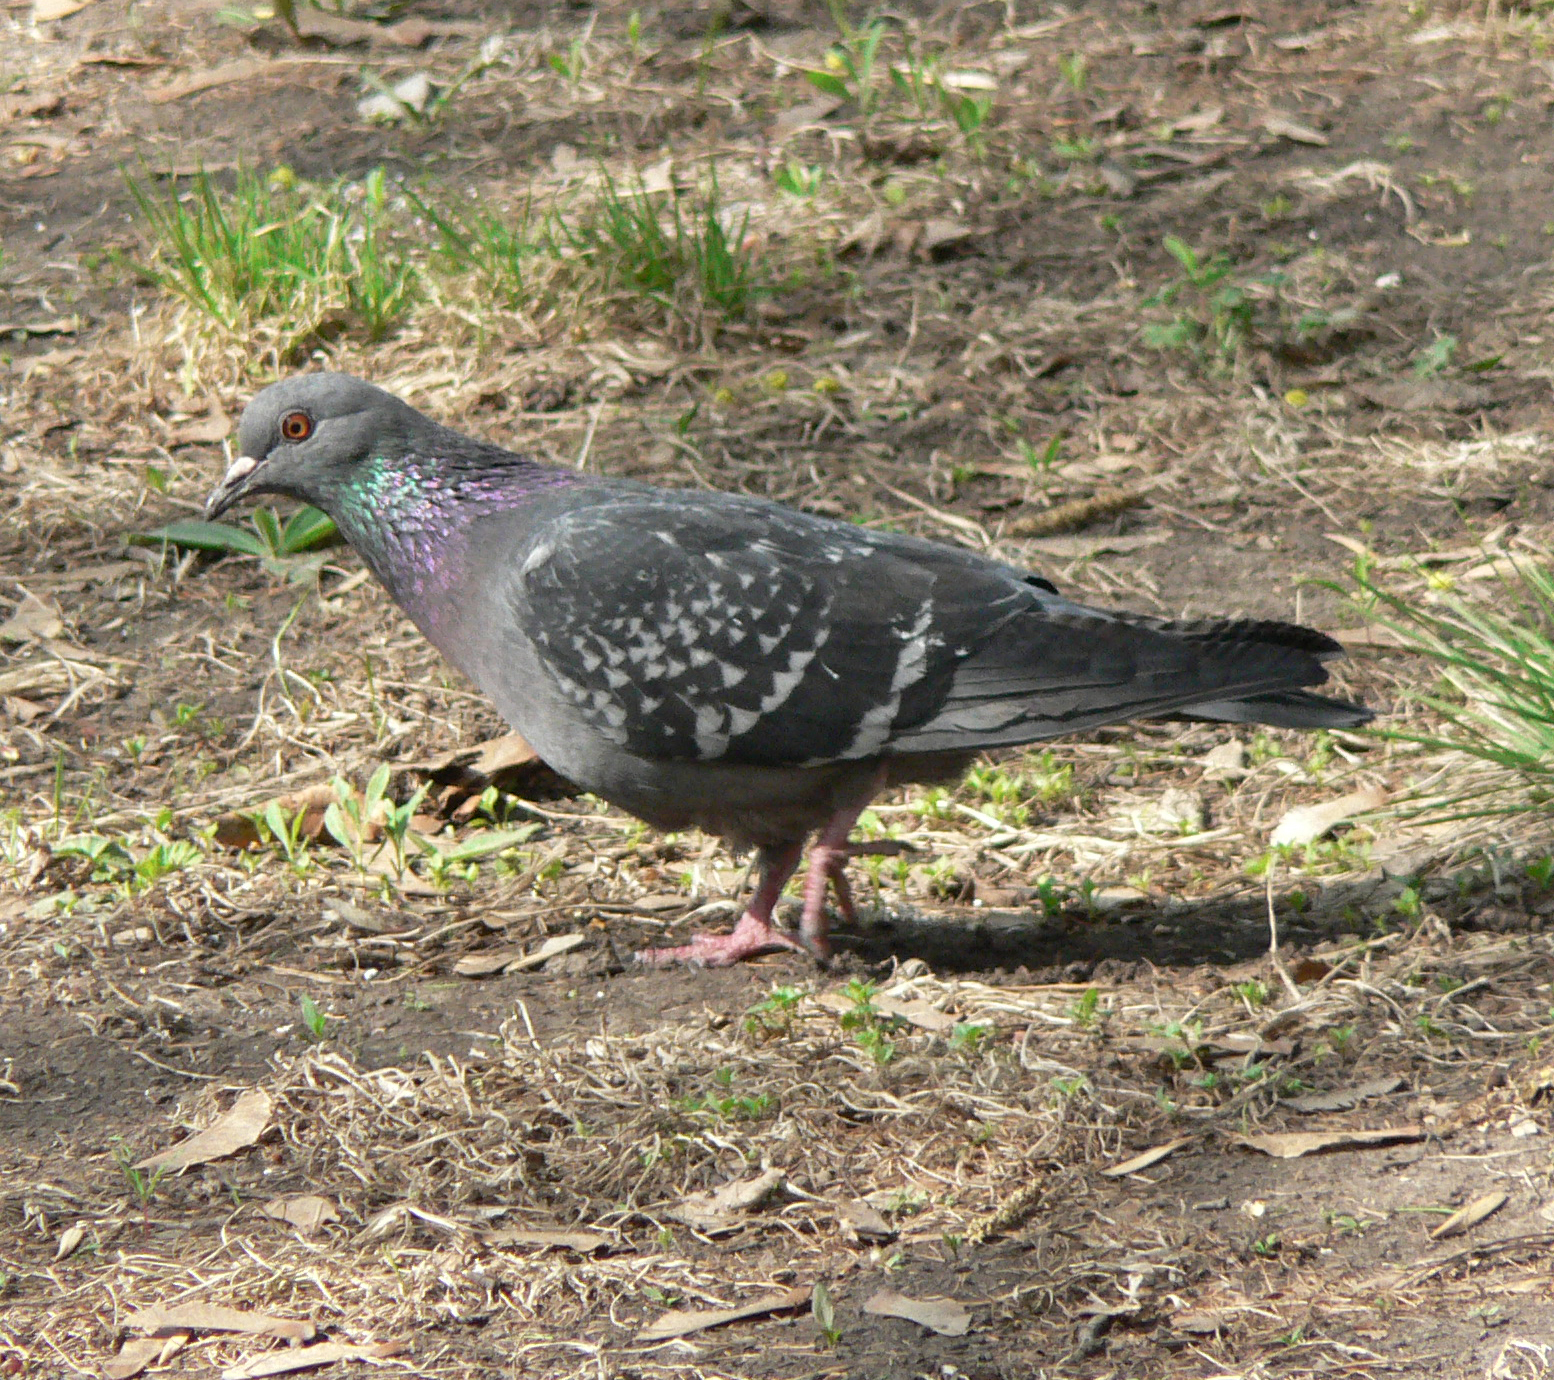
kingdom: Animalia
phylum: Chordata
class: Aves
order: Columbiformes
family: Columbidae
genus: Columba
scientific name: Columba livia
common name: Rock pigeon
